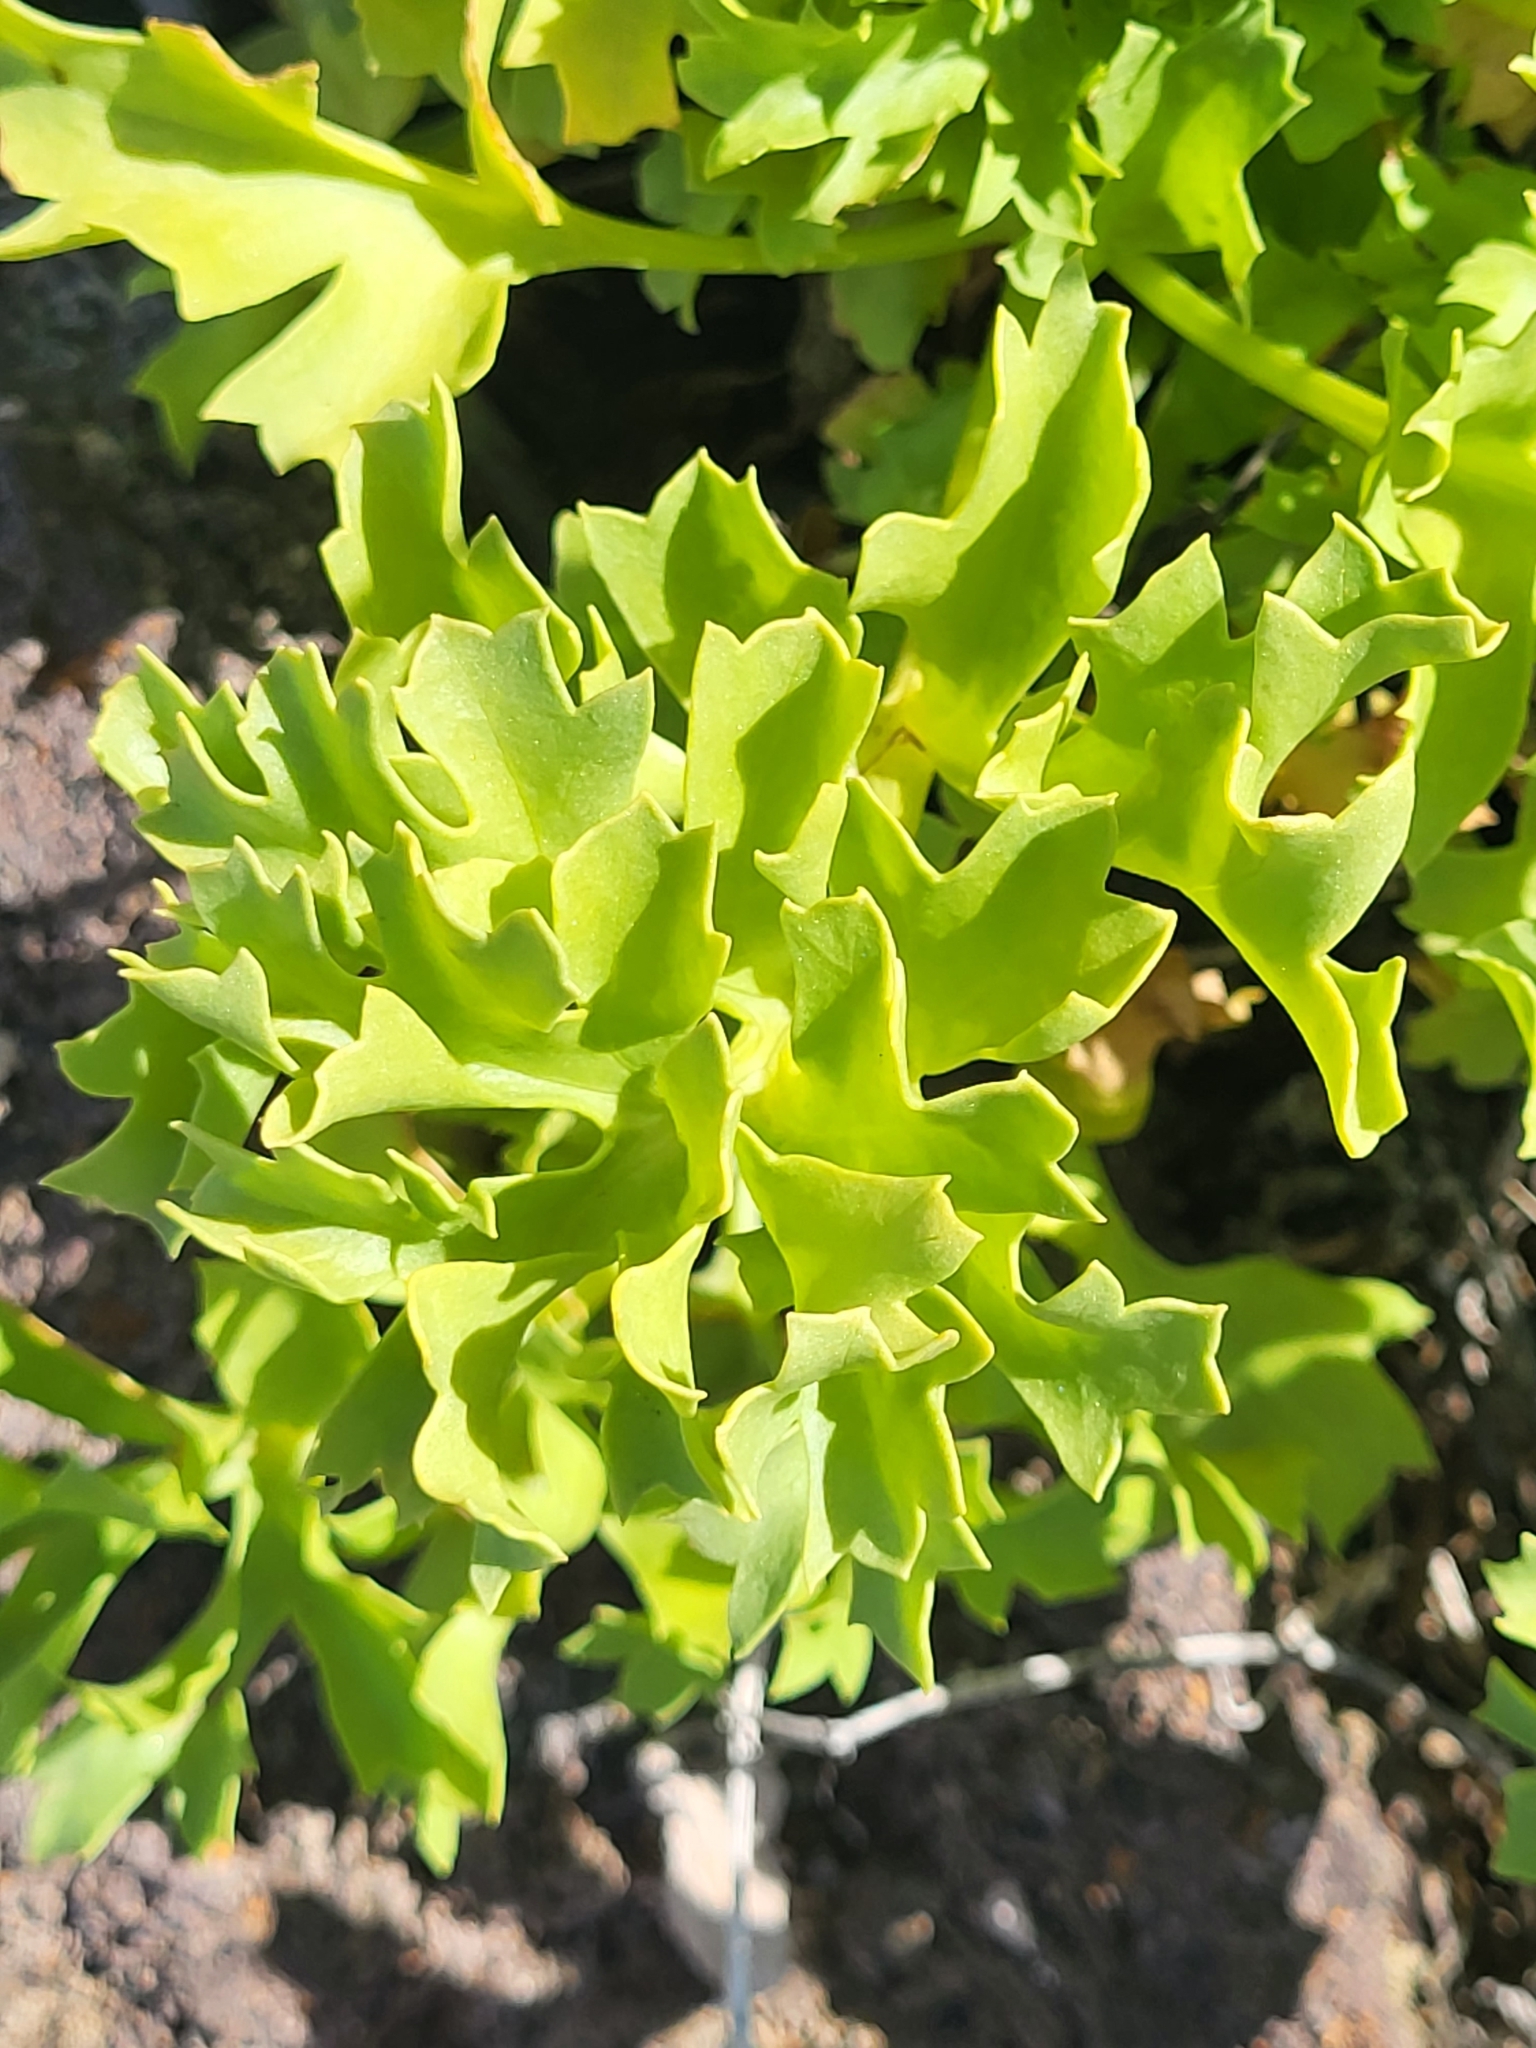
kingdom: Plantae
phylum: Tracheophyta
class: Magnoliopsida
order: Apiales
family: Apiaceae
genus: Astydamia
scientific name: Astydamia latifolia
